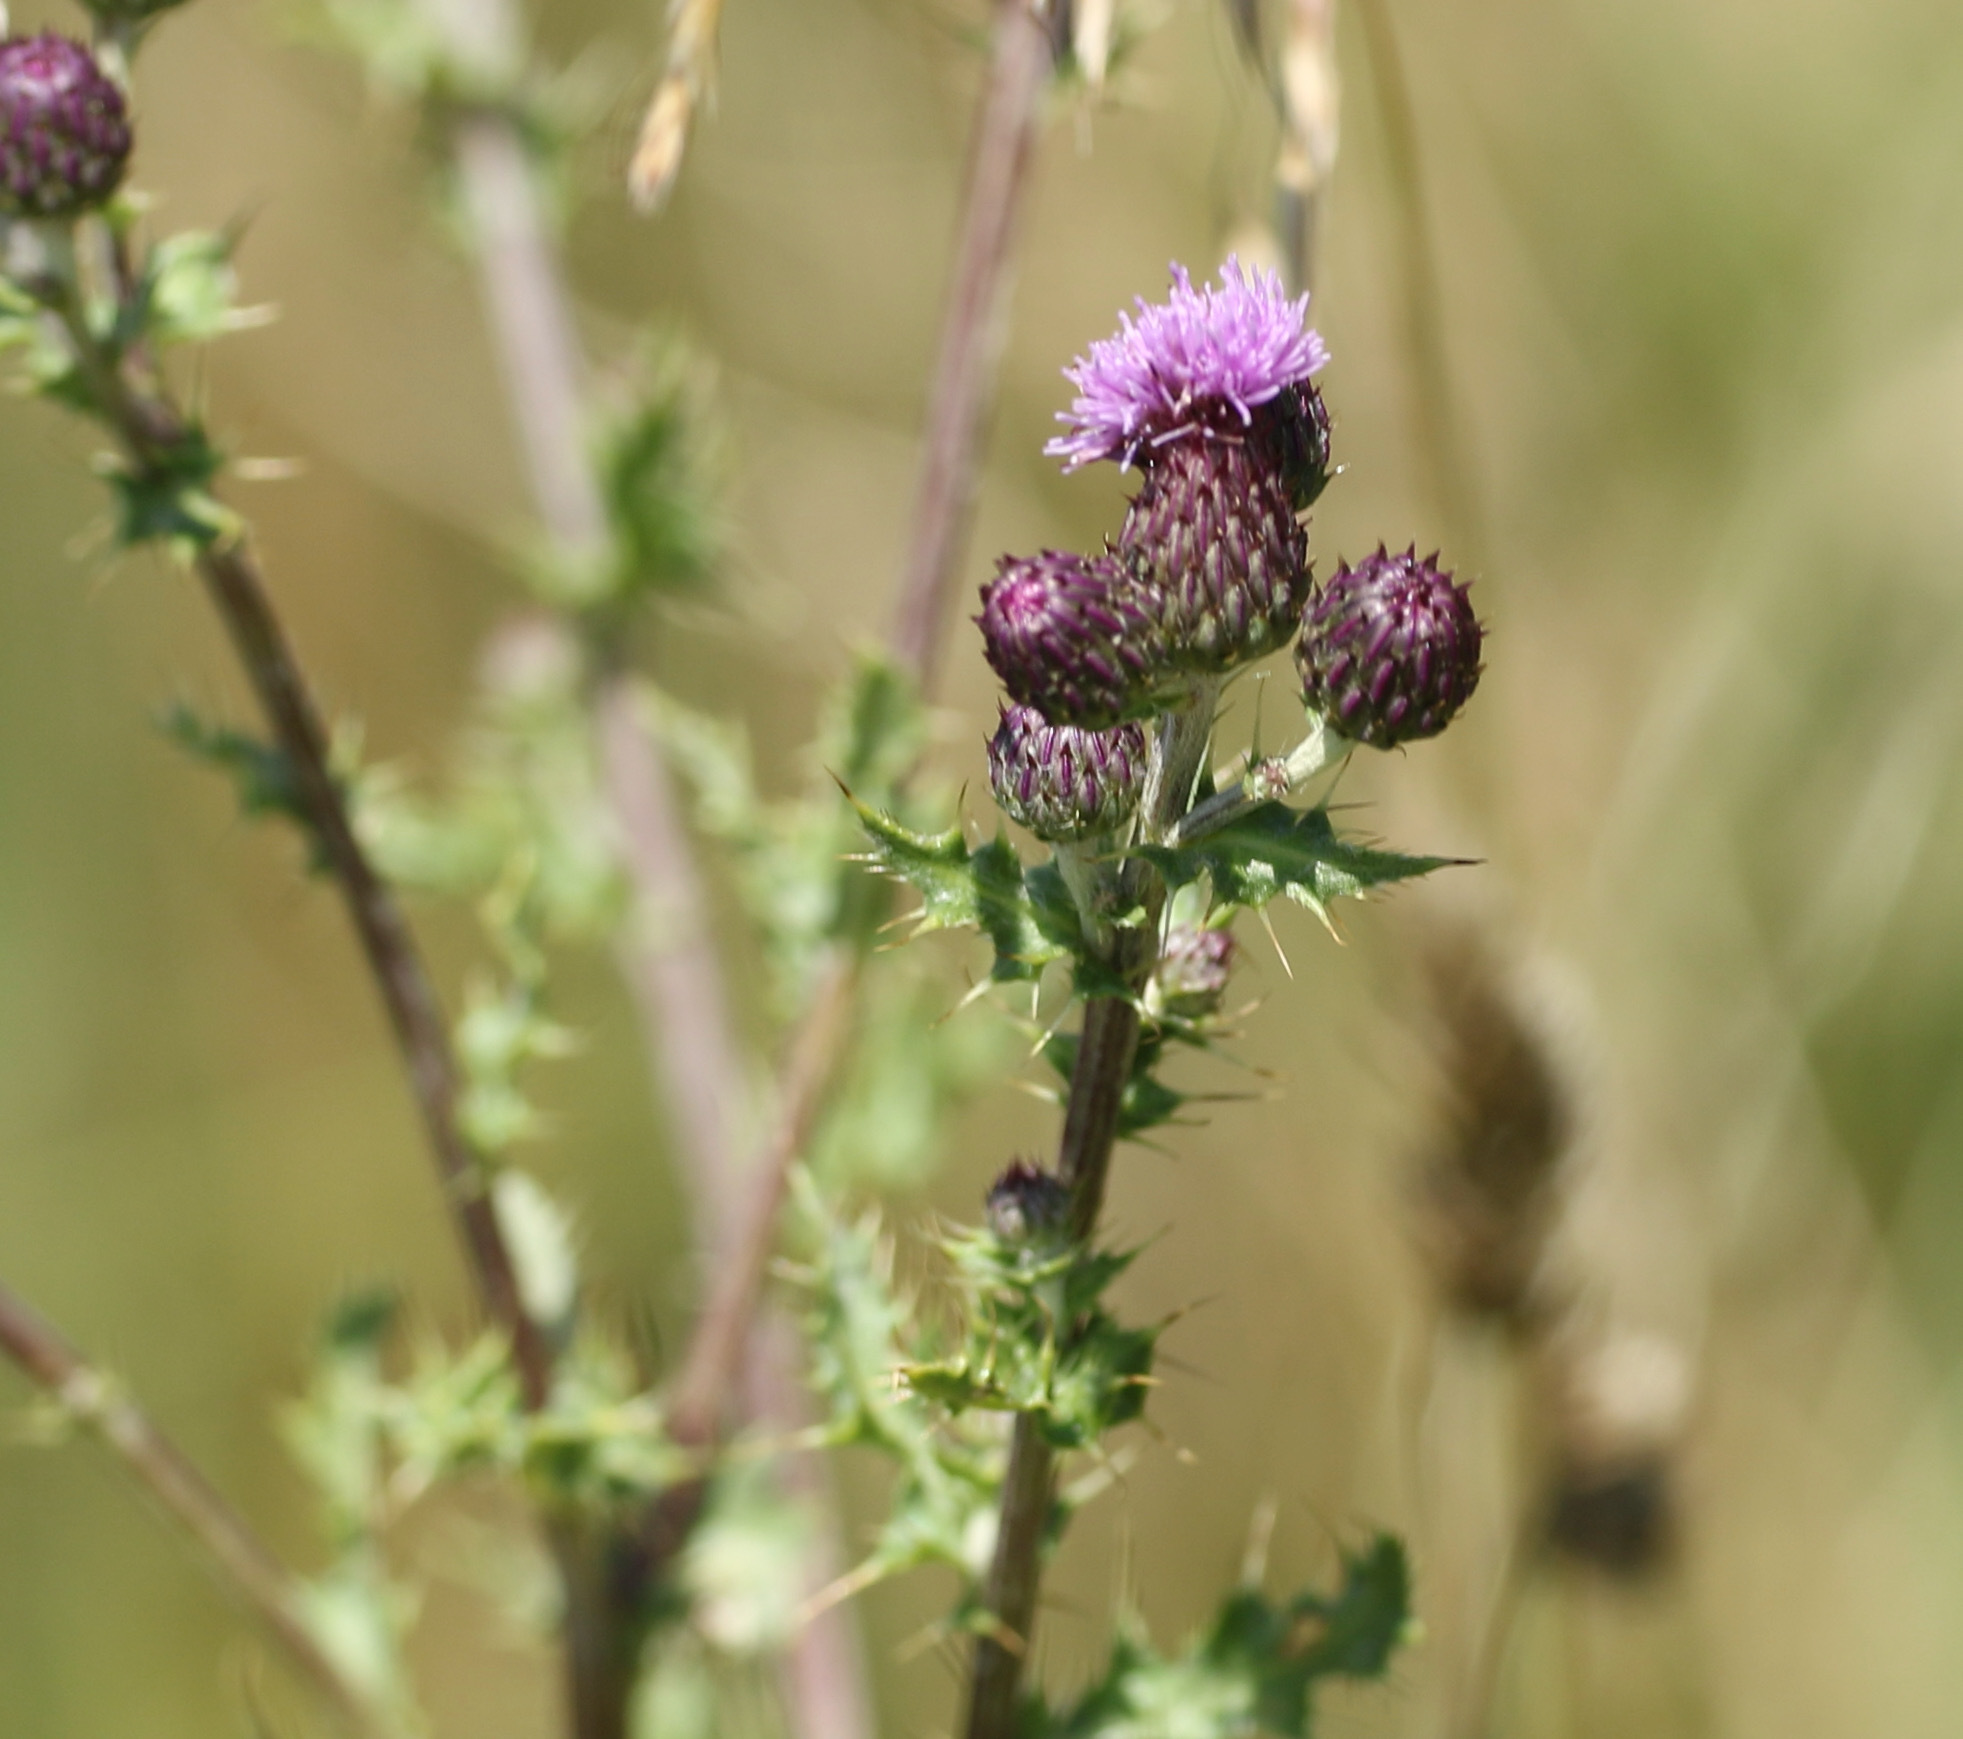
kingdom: Plantae
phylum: Tracheophyta
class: Magnoliopsida
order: Asterales
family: Asteraceae
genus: Cirsium
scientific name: Cirsium arvense
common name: Creeping thistle
